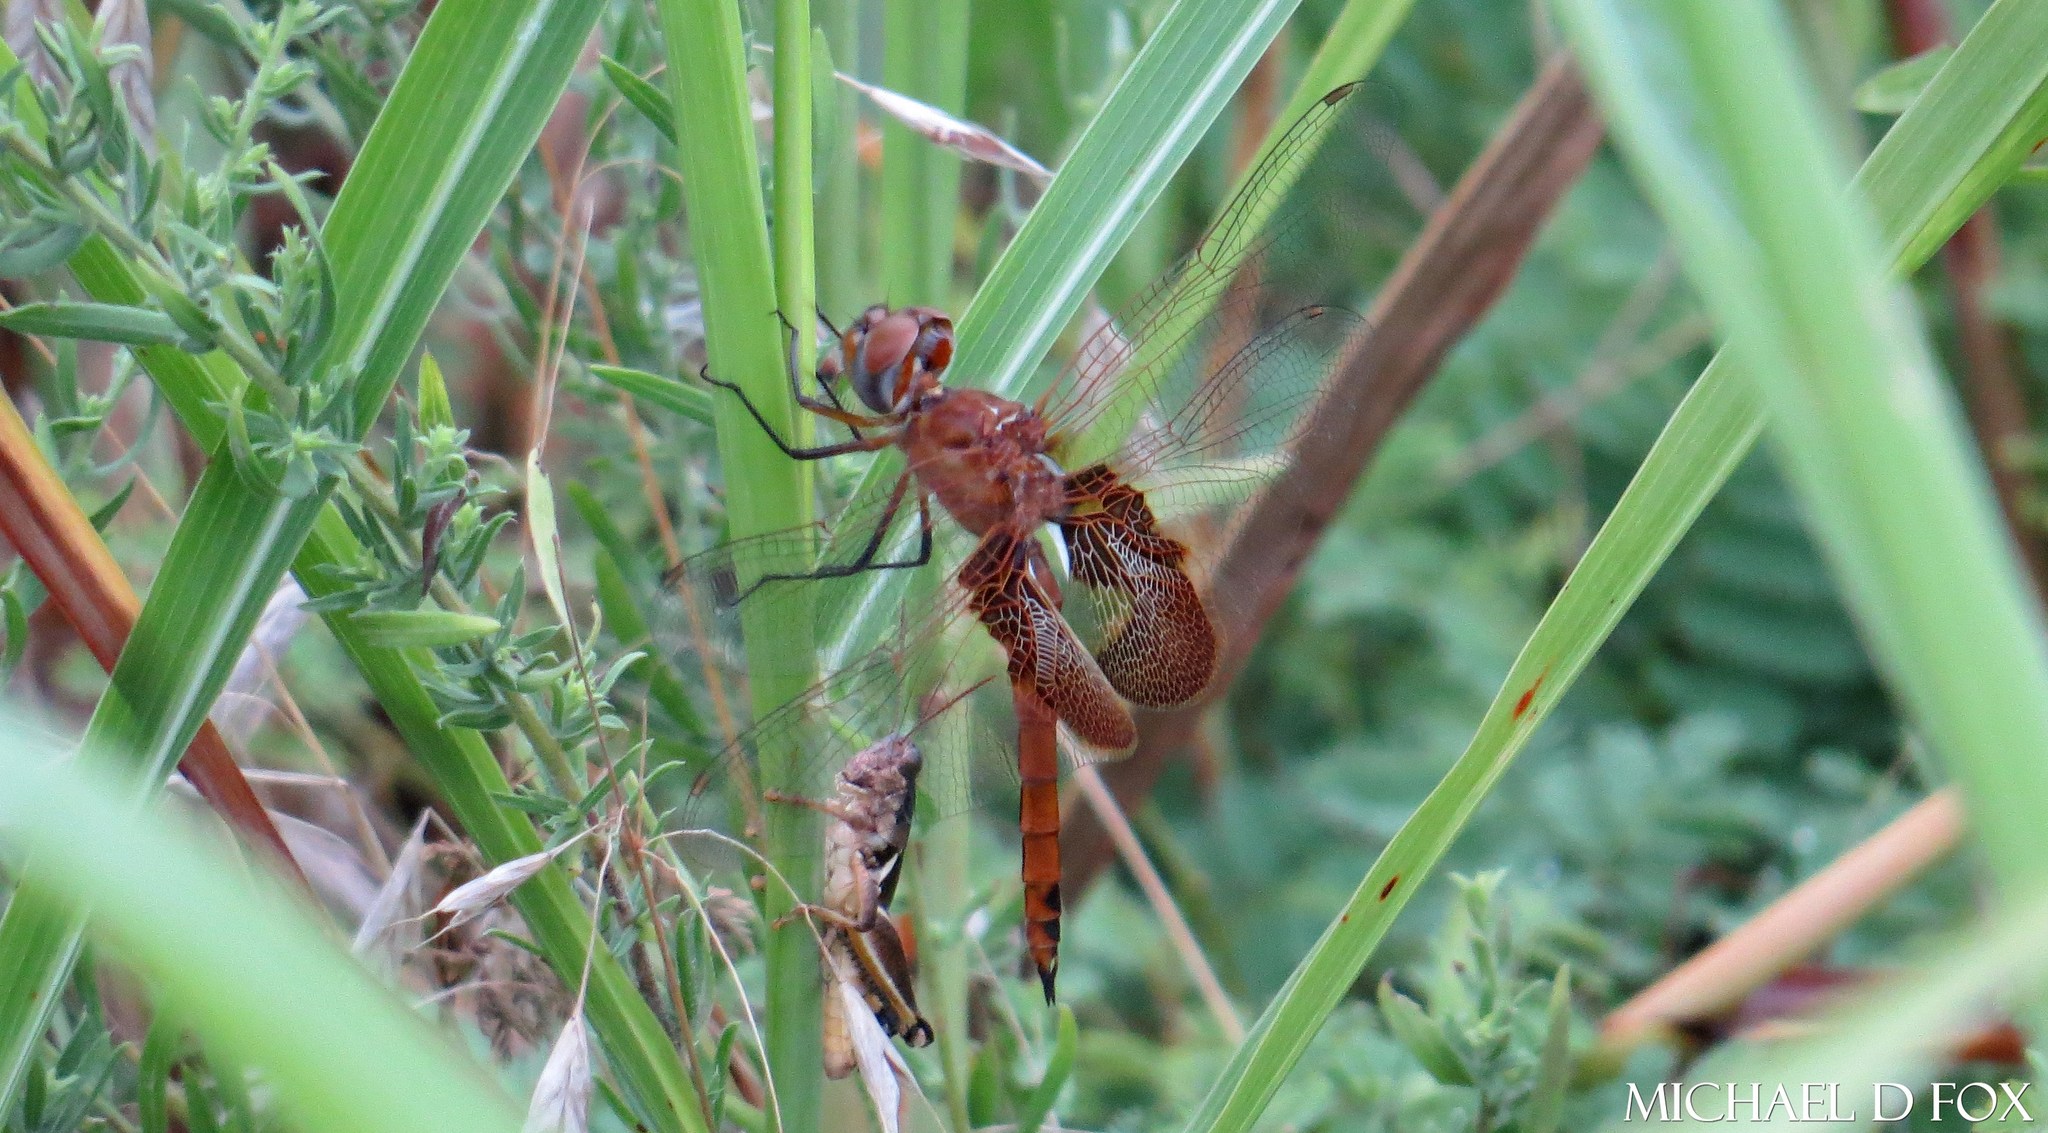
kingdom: Animalia
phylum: Arthropoda
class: Insecta
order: Odonata
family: Libellulidae
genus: Tramea
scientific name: Tramea onusta
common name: Red saddlebags
